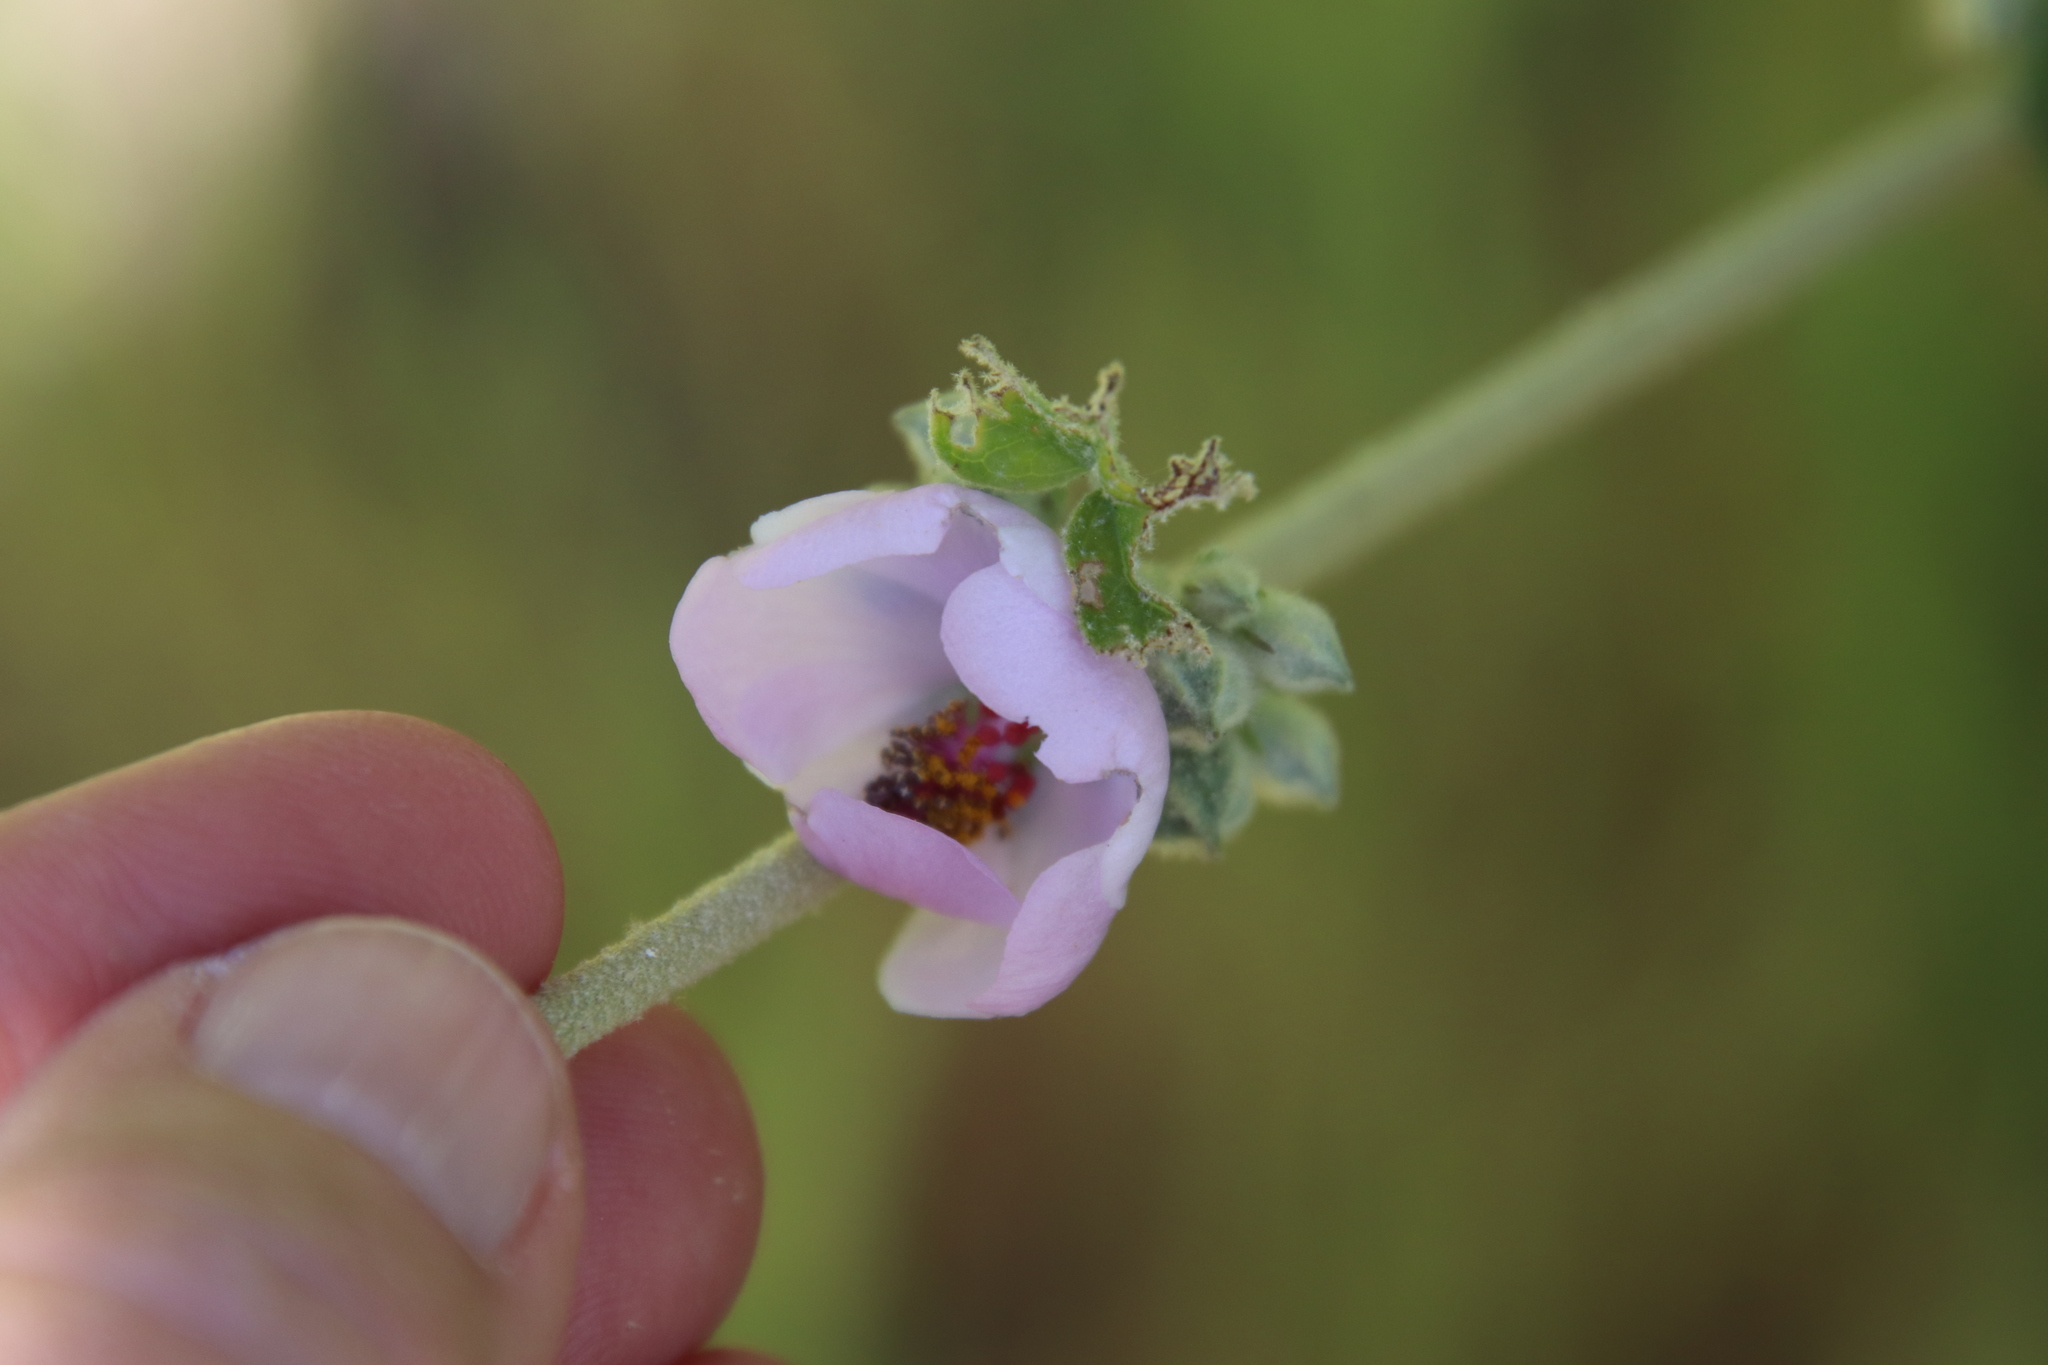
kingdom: Plantae
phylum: Tracheophyta
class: Magnoliopsida
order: Malvales
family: Malvaceae
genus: Malacothamnus
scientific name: Malacothamnus fasciculatus
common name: Sant cruz island bush-mallow
